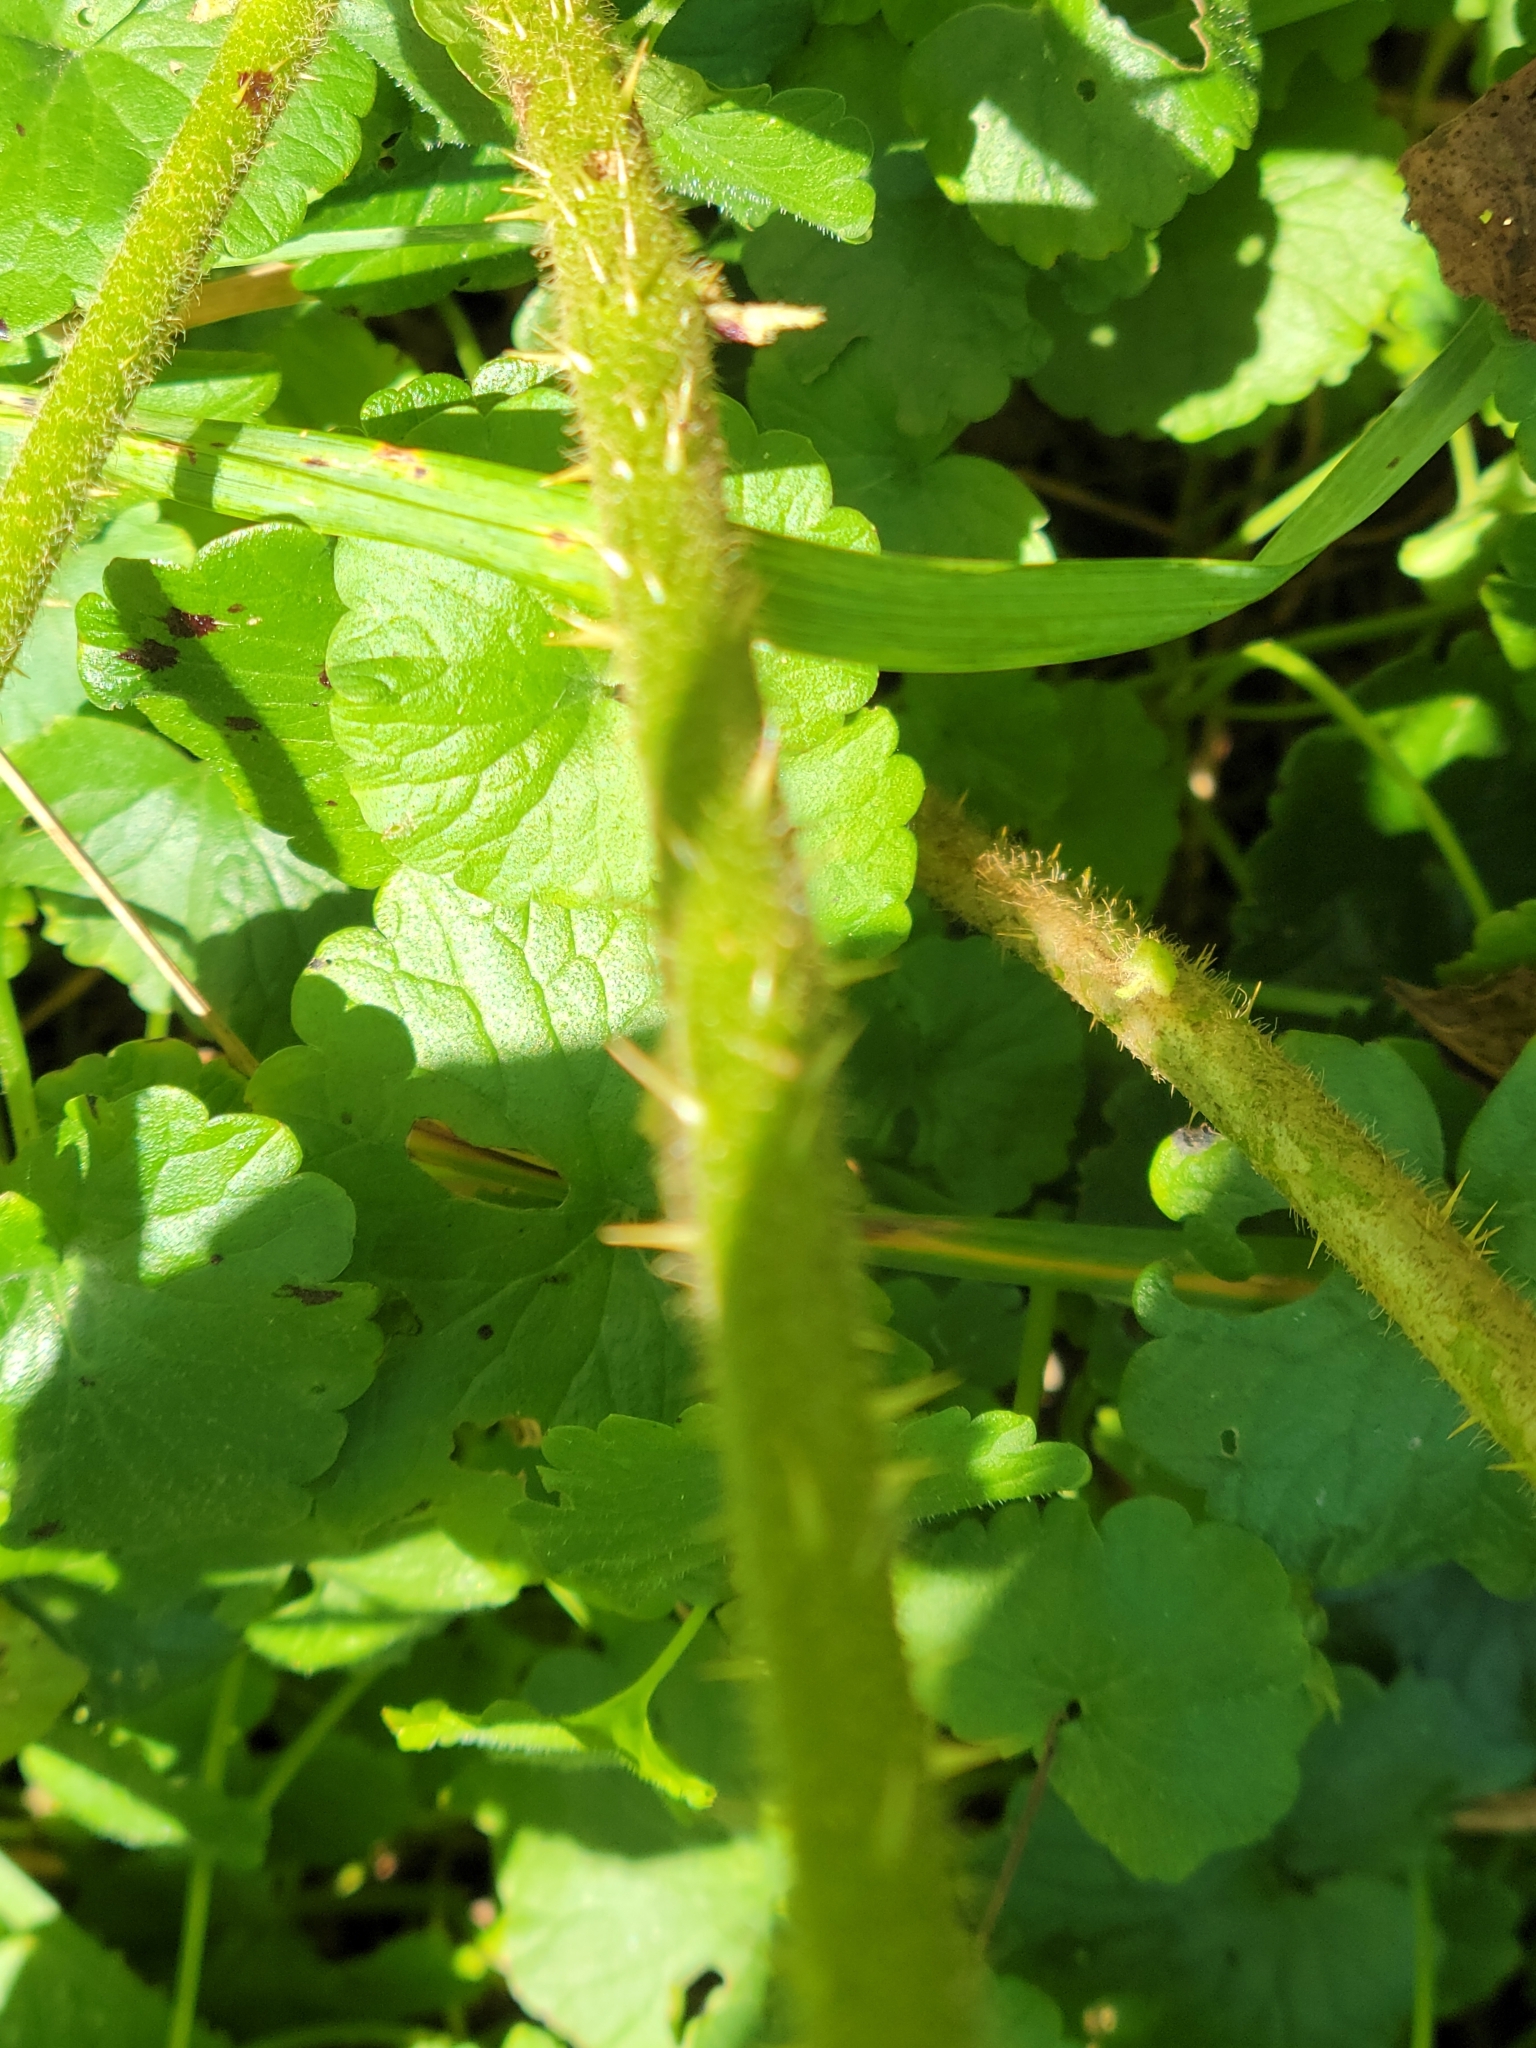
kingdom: Plantae
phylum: Tracheophyta
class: Magnoliopsida
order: Solanales
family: Solanaceae
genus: Solanum
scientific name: Solanum carolinense
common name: Horse-nettle
